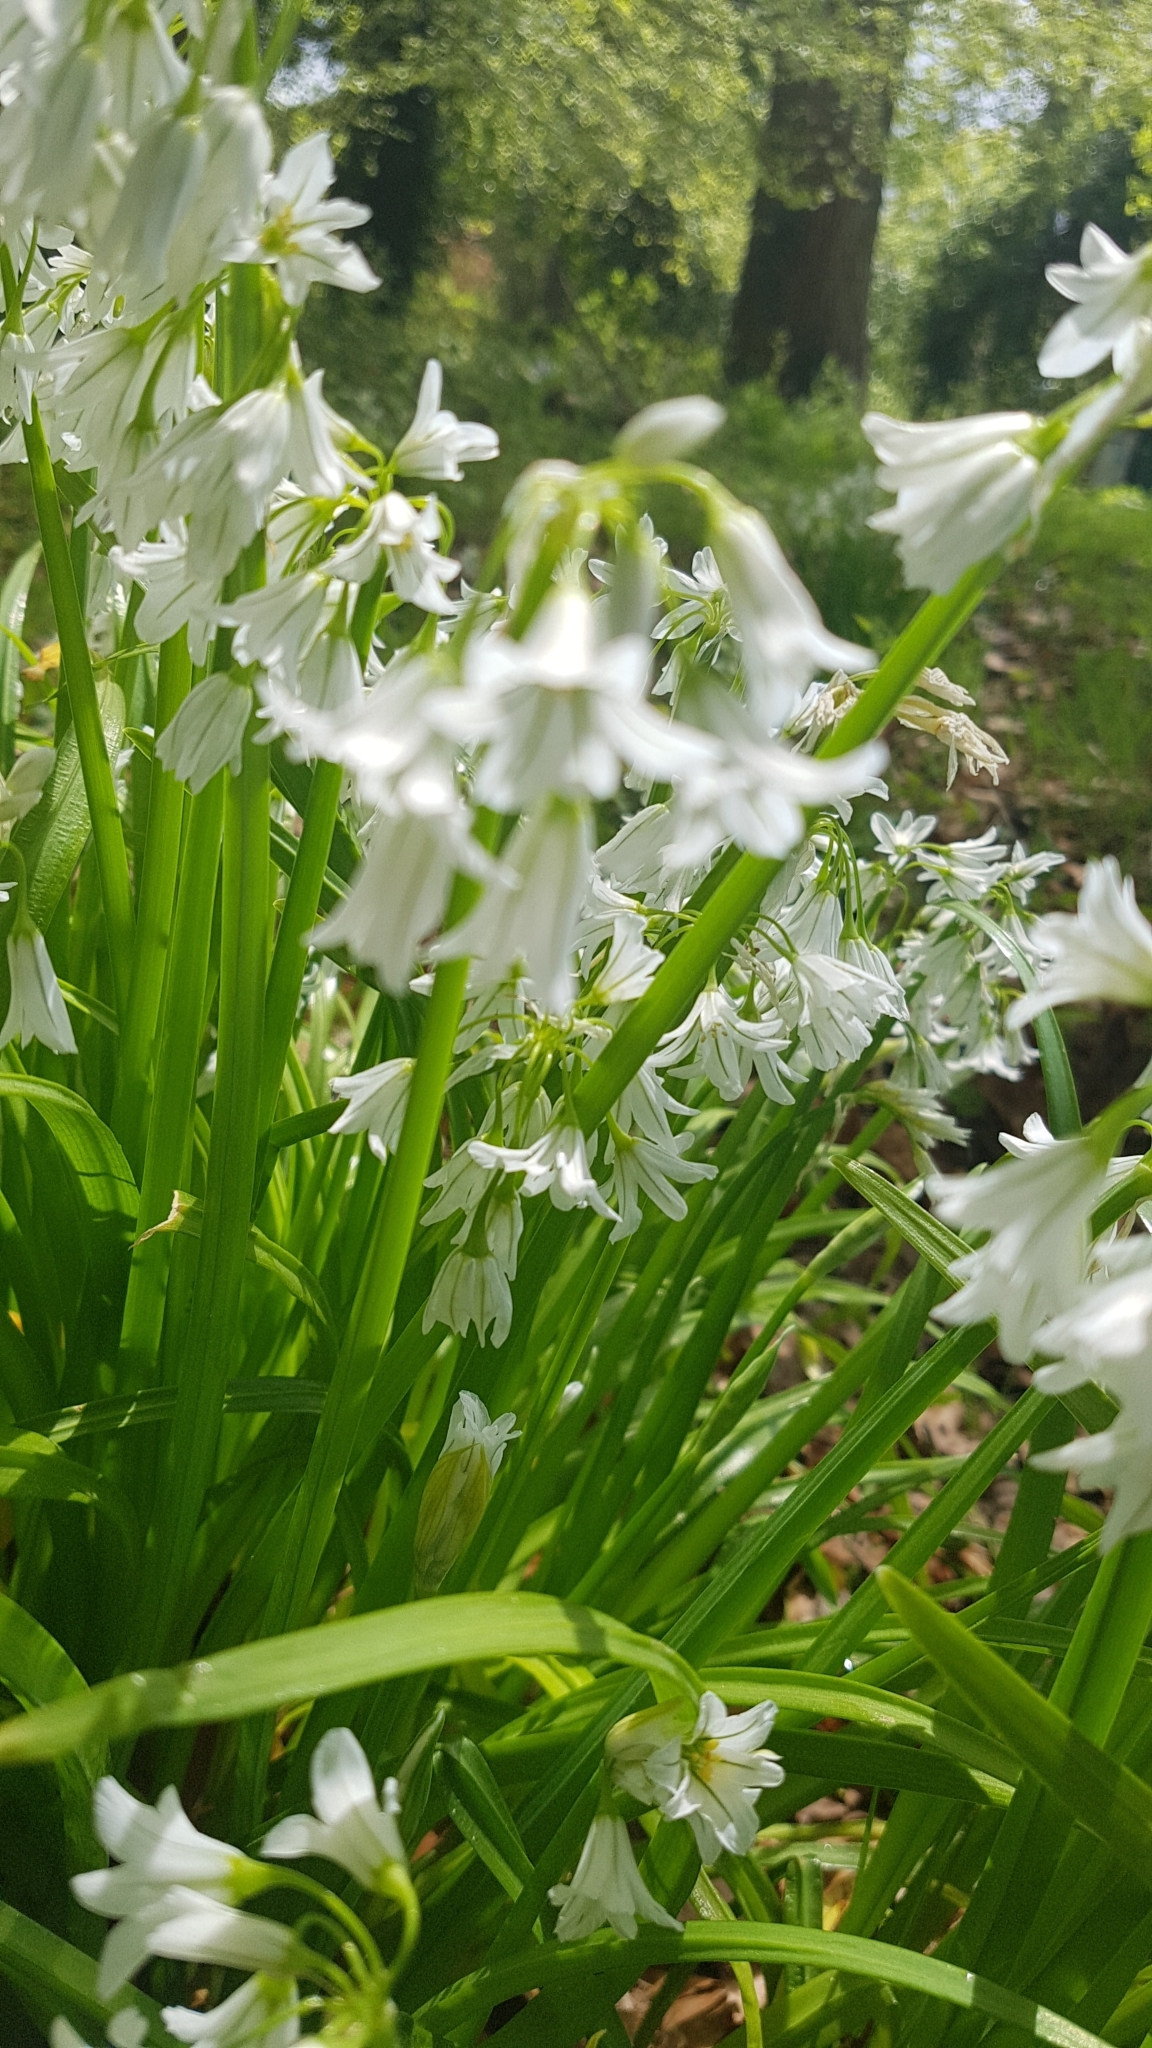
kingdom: Plantae
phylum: Tracheophyta
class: Liliopsida
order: Asparagales
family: Amaryllidaceae
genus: Allium
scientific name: Allium triquetrum
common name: Three-cornered garlic
